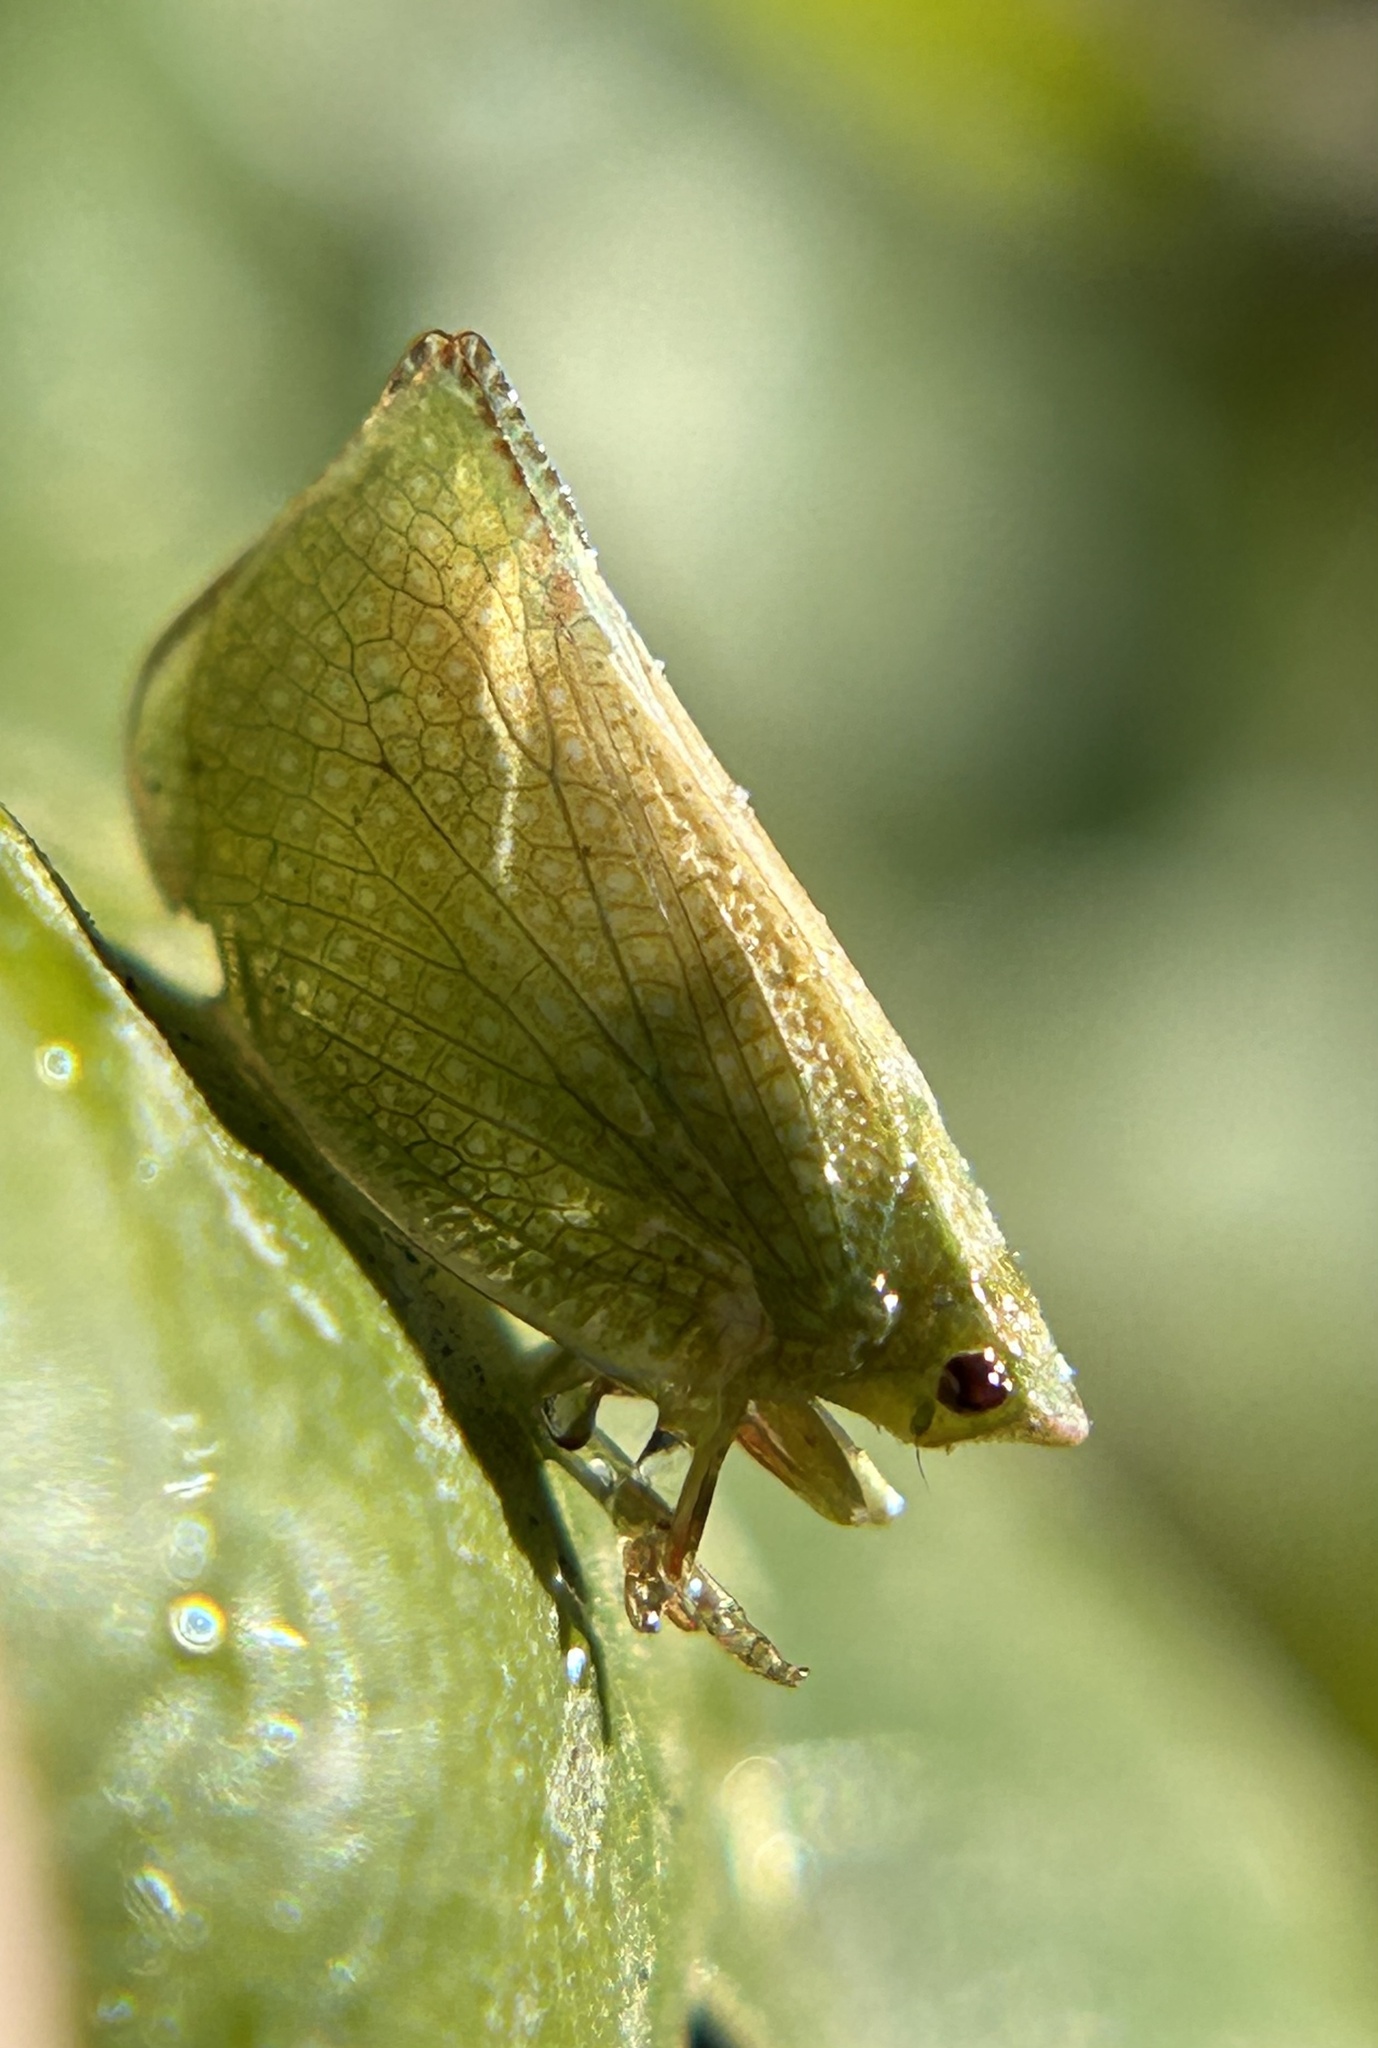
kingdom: Animalia
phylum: Arthropoda
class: Insecta
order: Hemiptera
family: Flatidae
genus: Siphanta
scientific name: Siphanta acuta
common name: Torpedo bug
